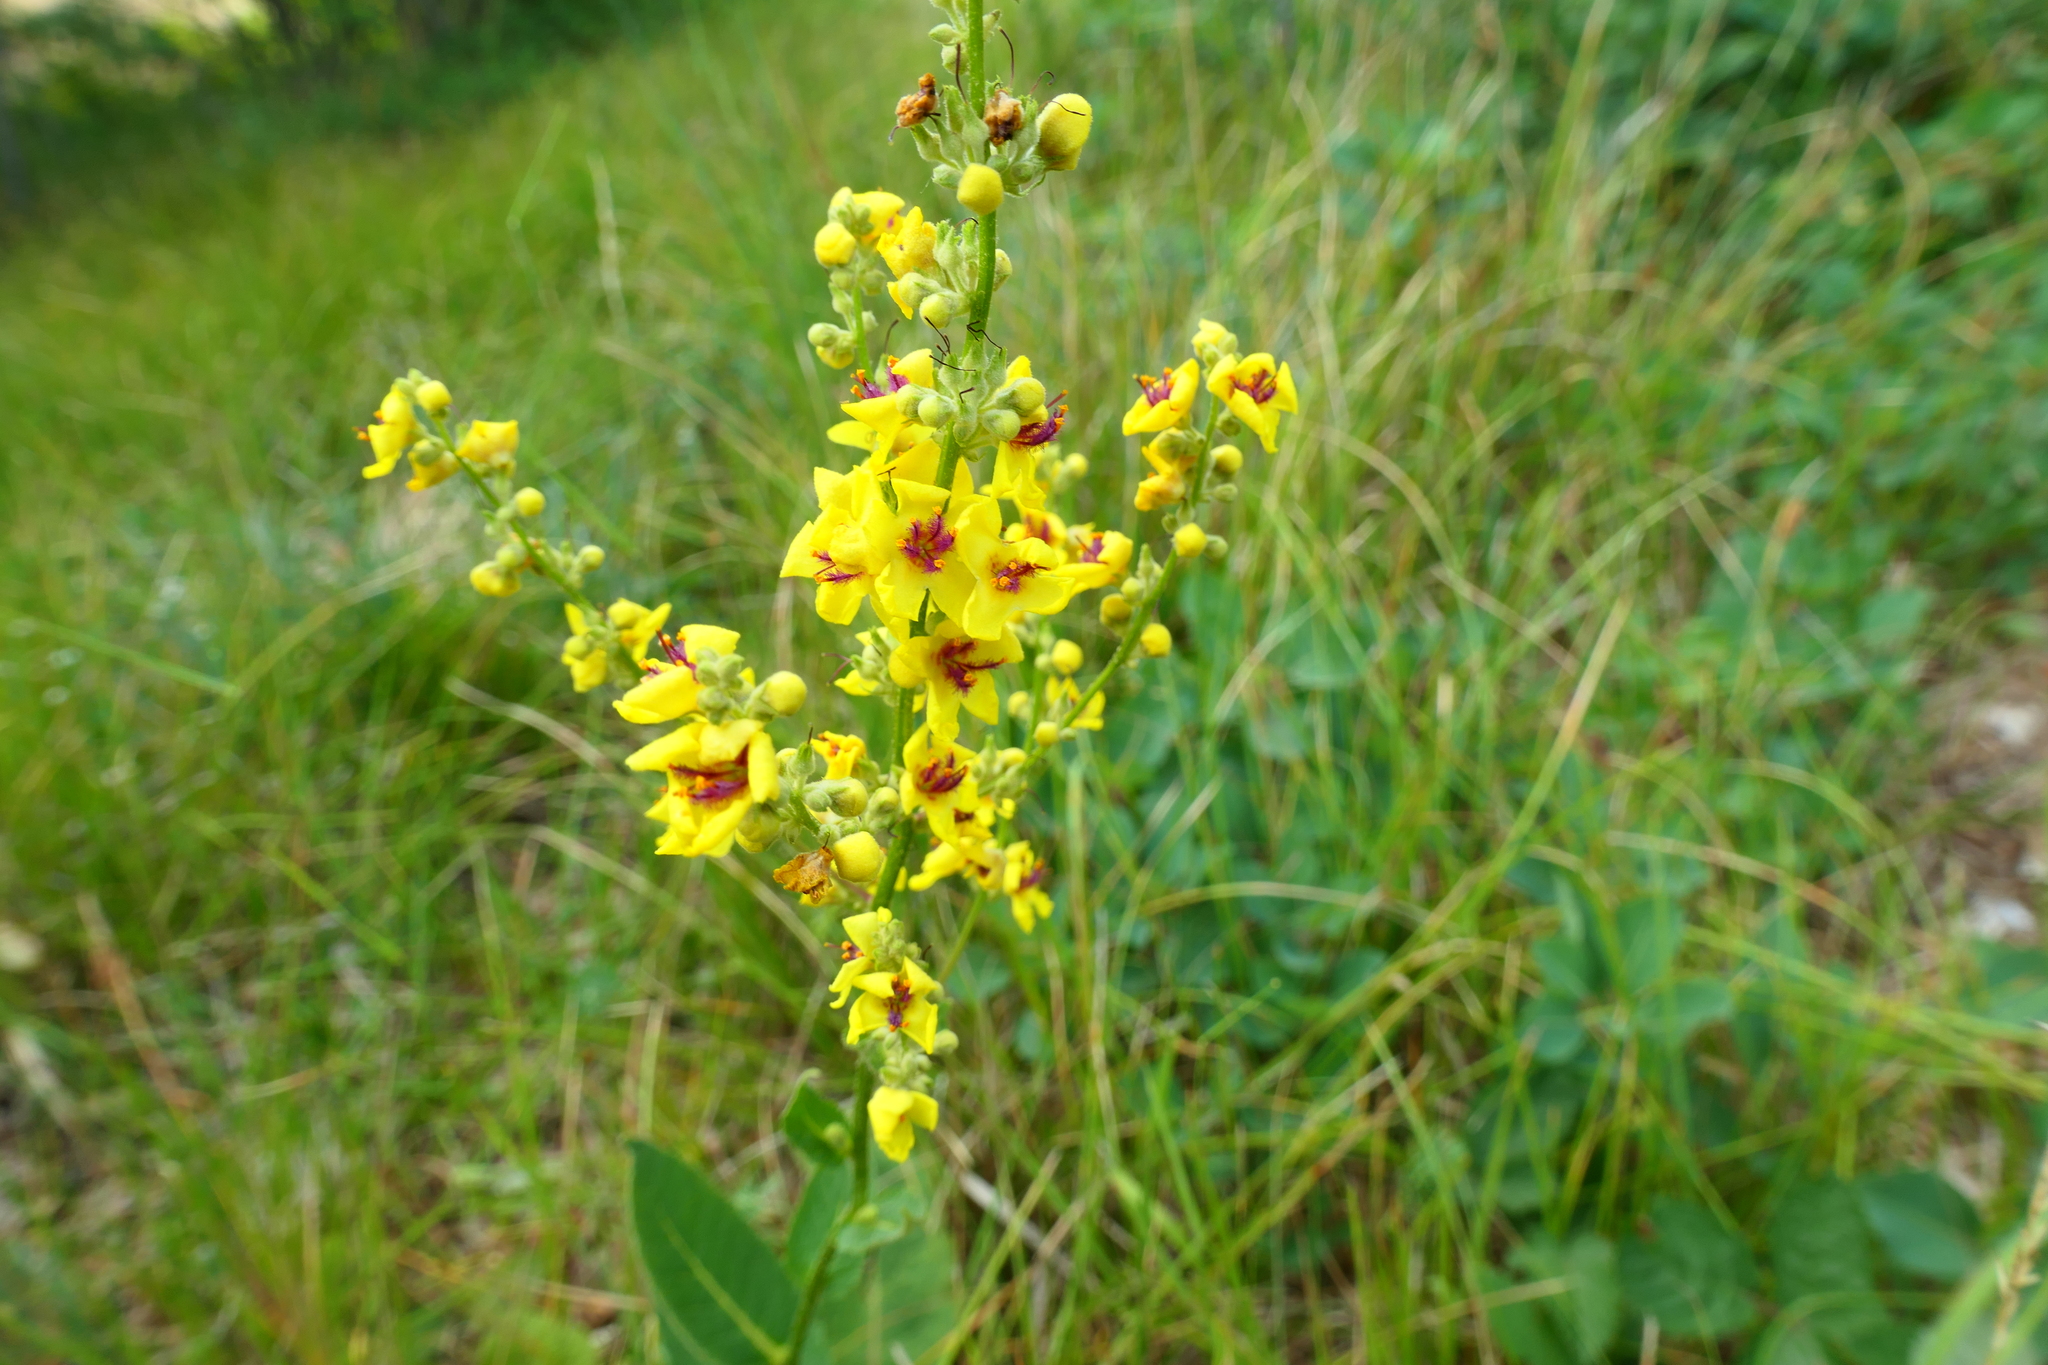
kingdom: Plantae
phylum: Tracheophyta
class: Magnoliopsida
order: Lamiales
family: Scrophulariaceae
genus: Verbascum
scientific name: Verbascum chaixii
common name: Nettle-leaved mullein
